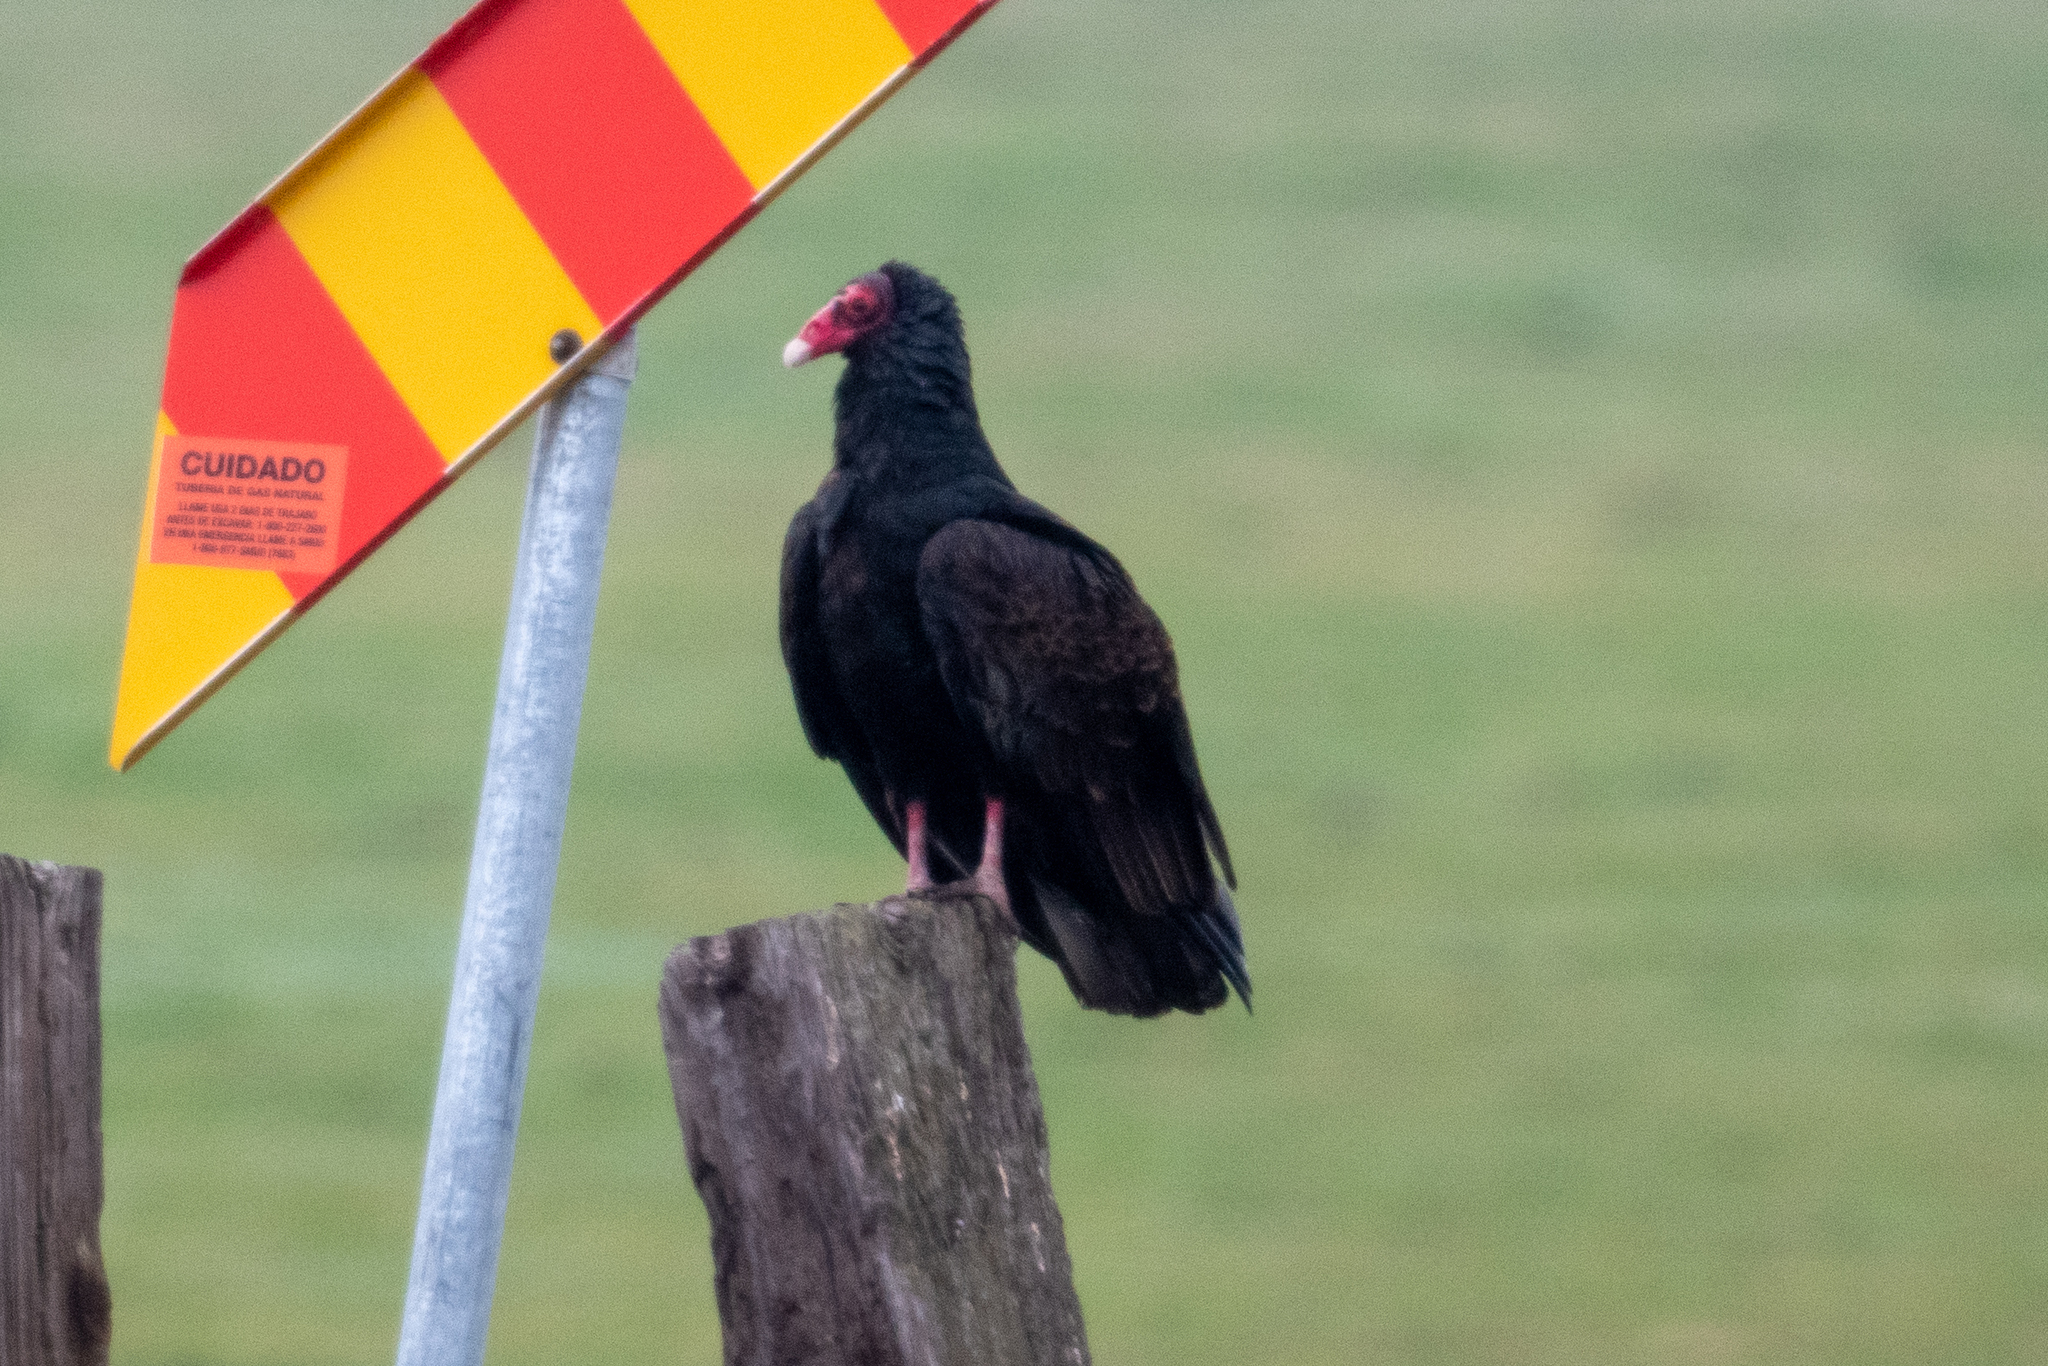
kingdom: Animalia
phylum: Chordata
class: Aves
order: Accipitriformes
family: Cathartidae
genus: Cathartes
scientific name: Cathartes aura
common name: Turkey vulture
